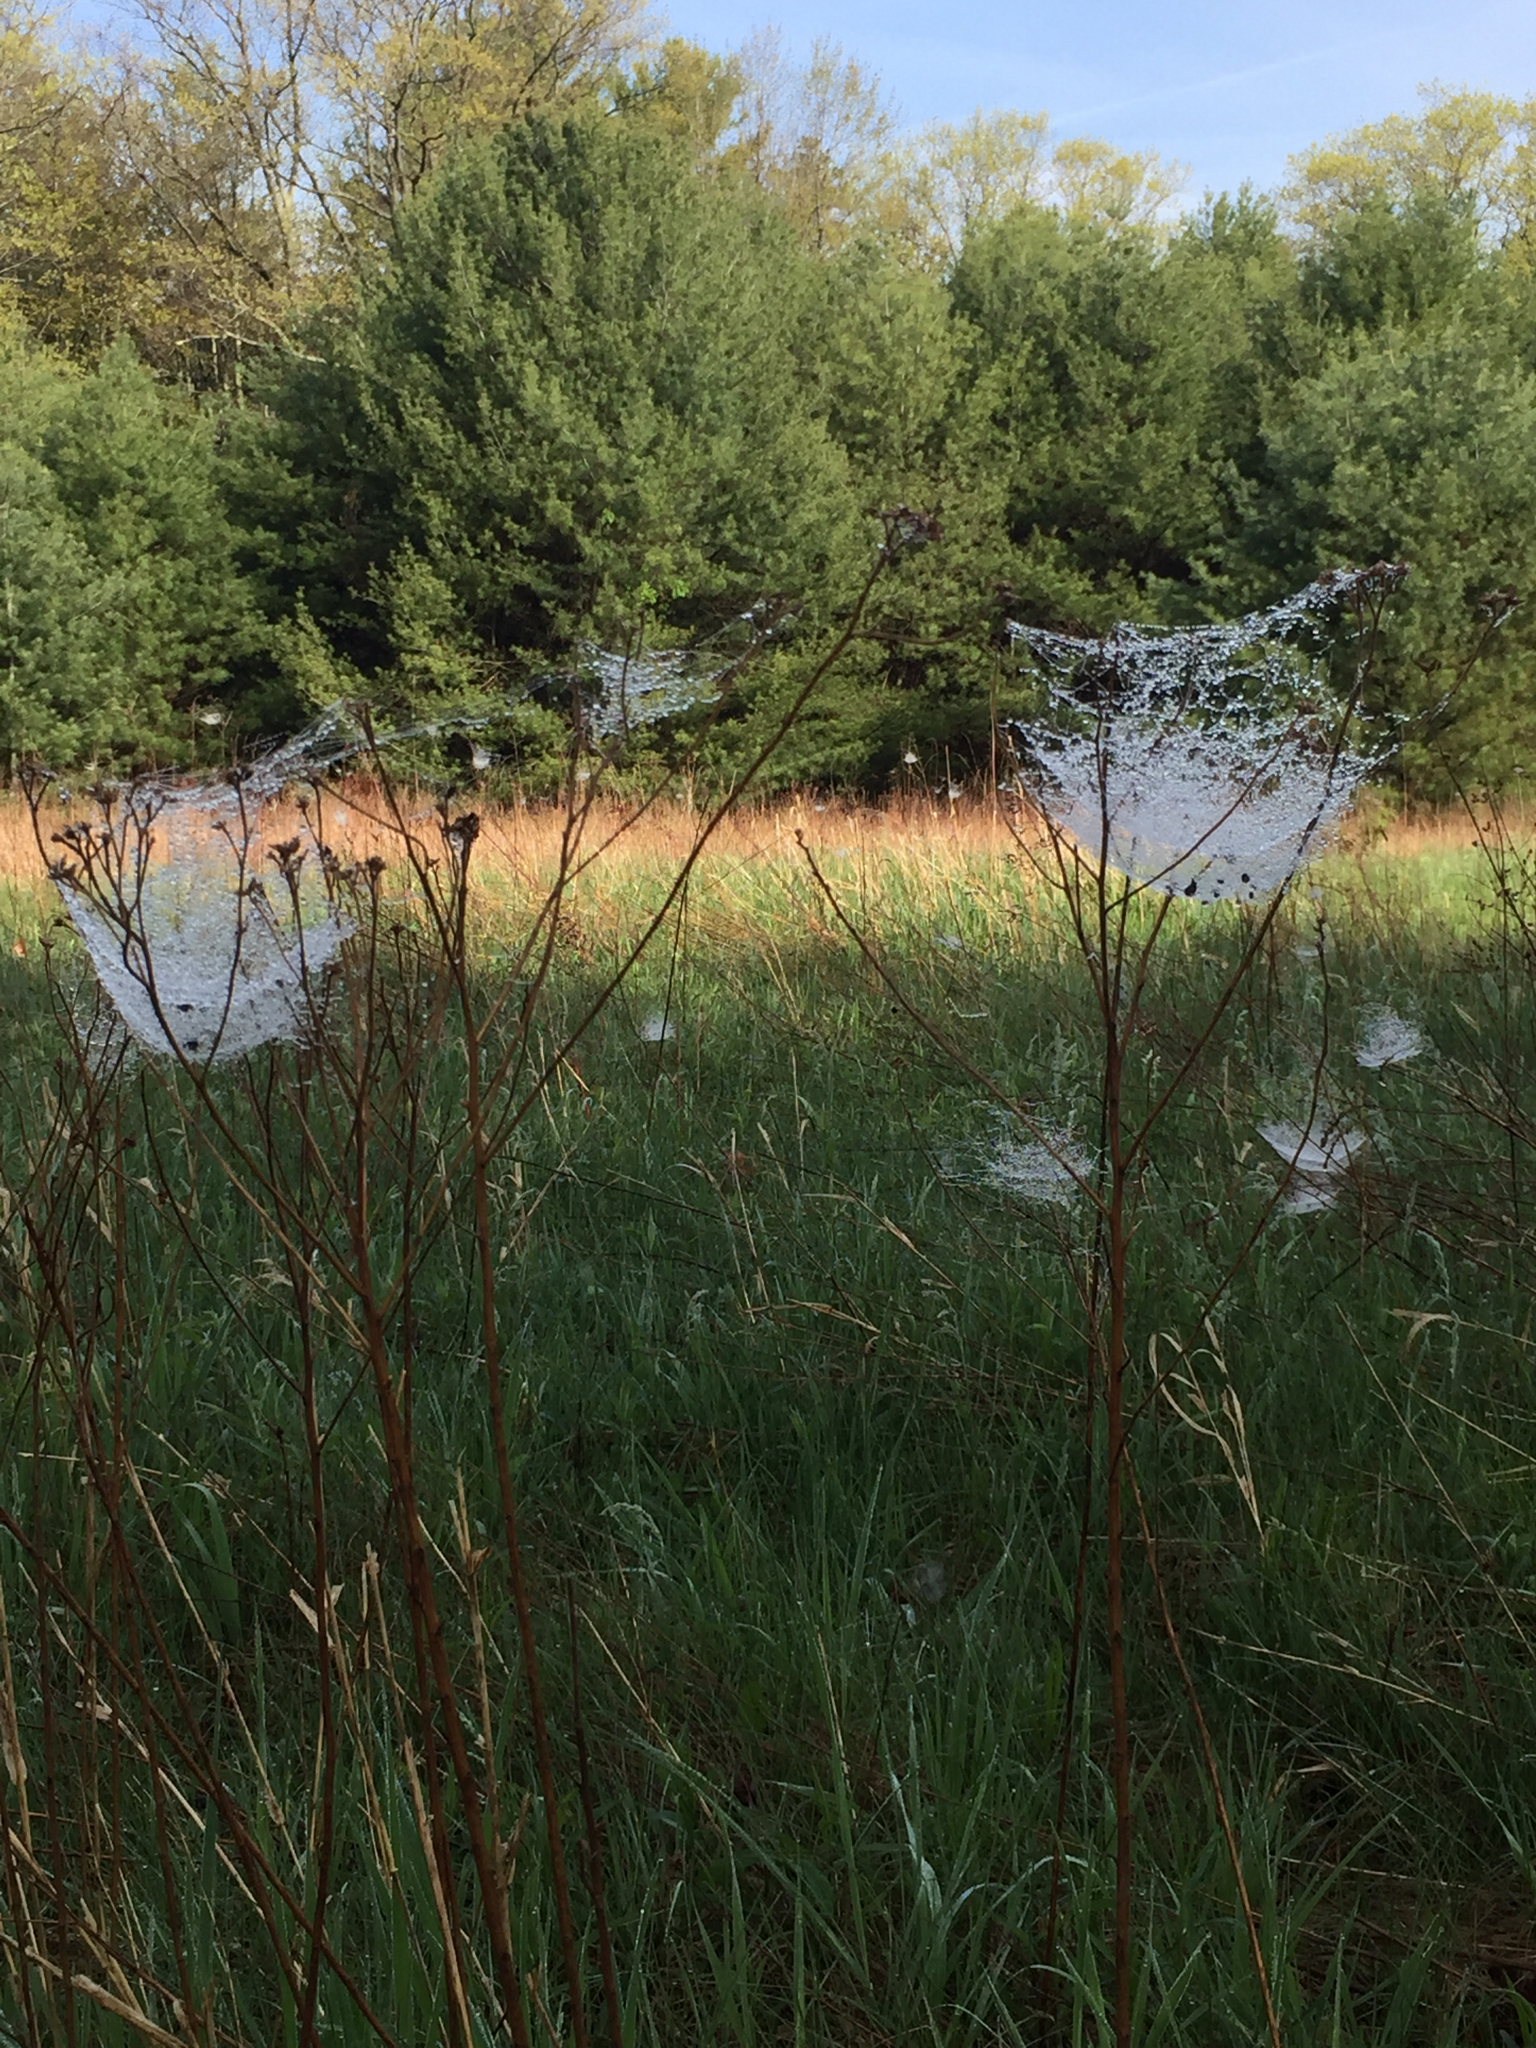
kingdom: Animalia
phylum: Arthropoda
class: Arachnida
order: Araneae
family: Linyphiidae
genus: Frontinella
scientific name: Frontinella pyramitela
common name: Bowl-and-doily spider
